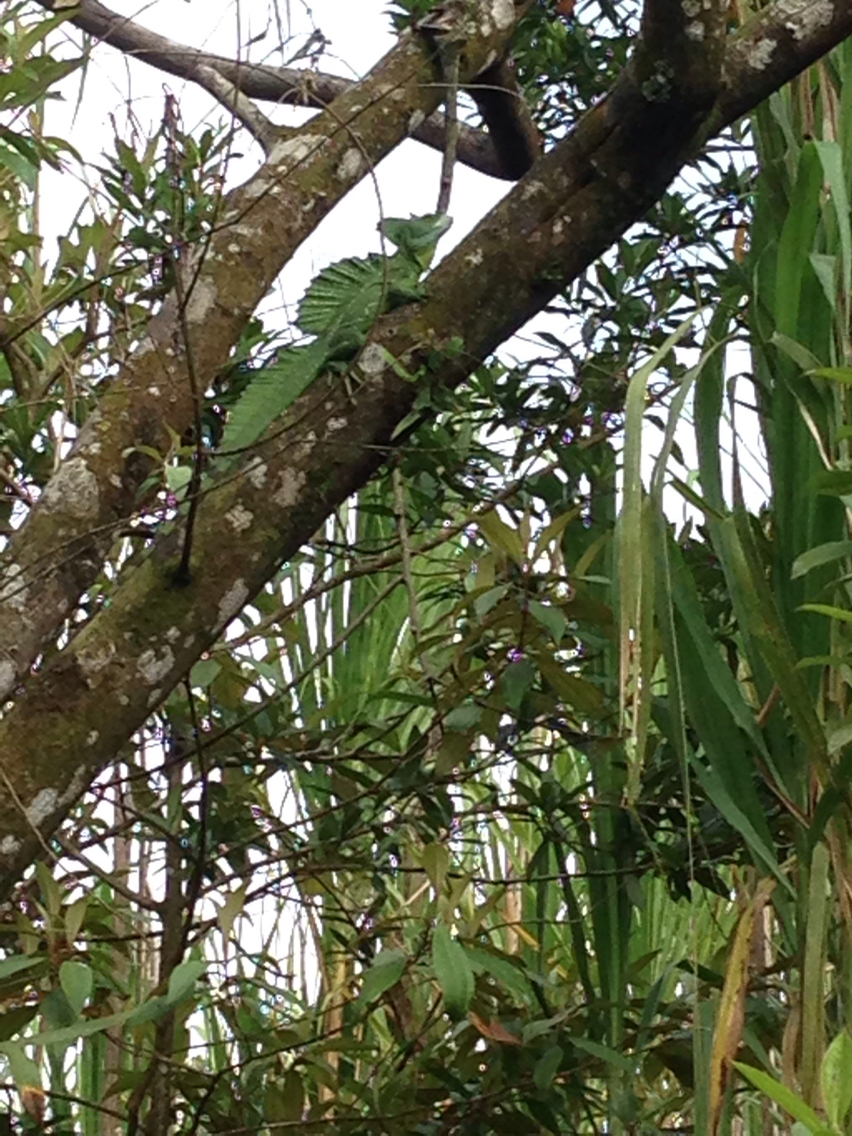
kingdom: Animalia
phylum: Chordata
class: Squamata
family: Corytophanidae
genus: Basiliscus
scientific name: Basiliscus plumifrons
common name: Green basilisk
